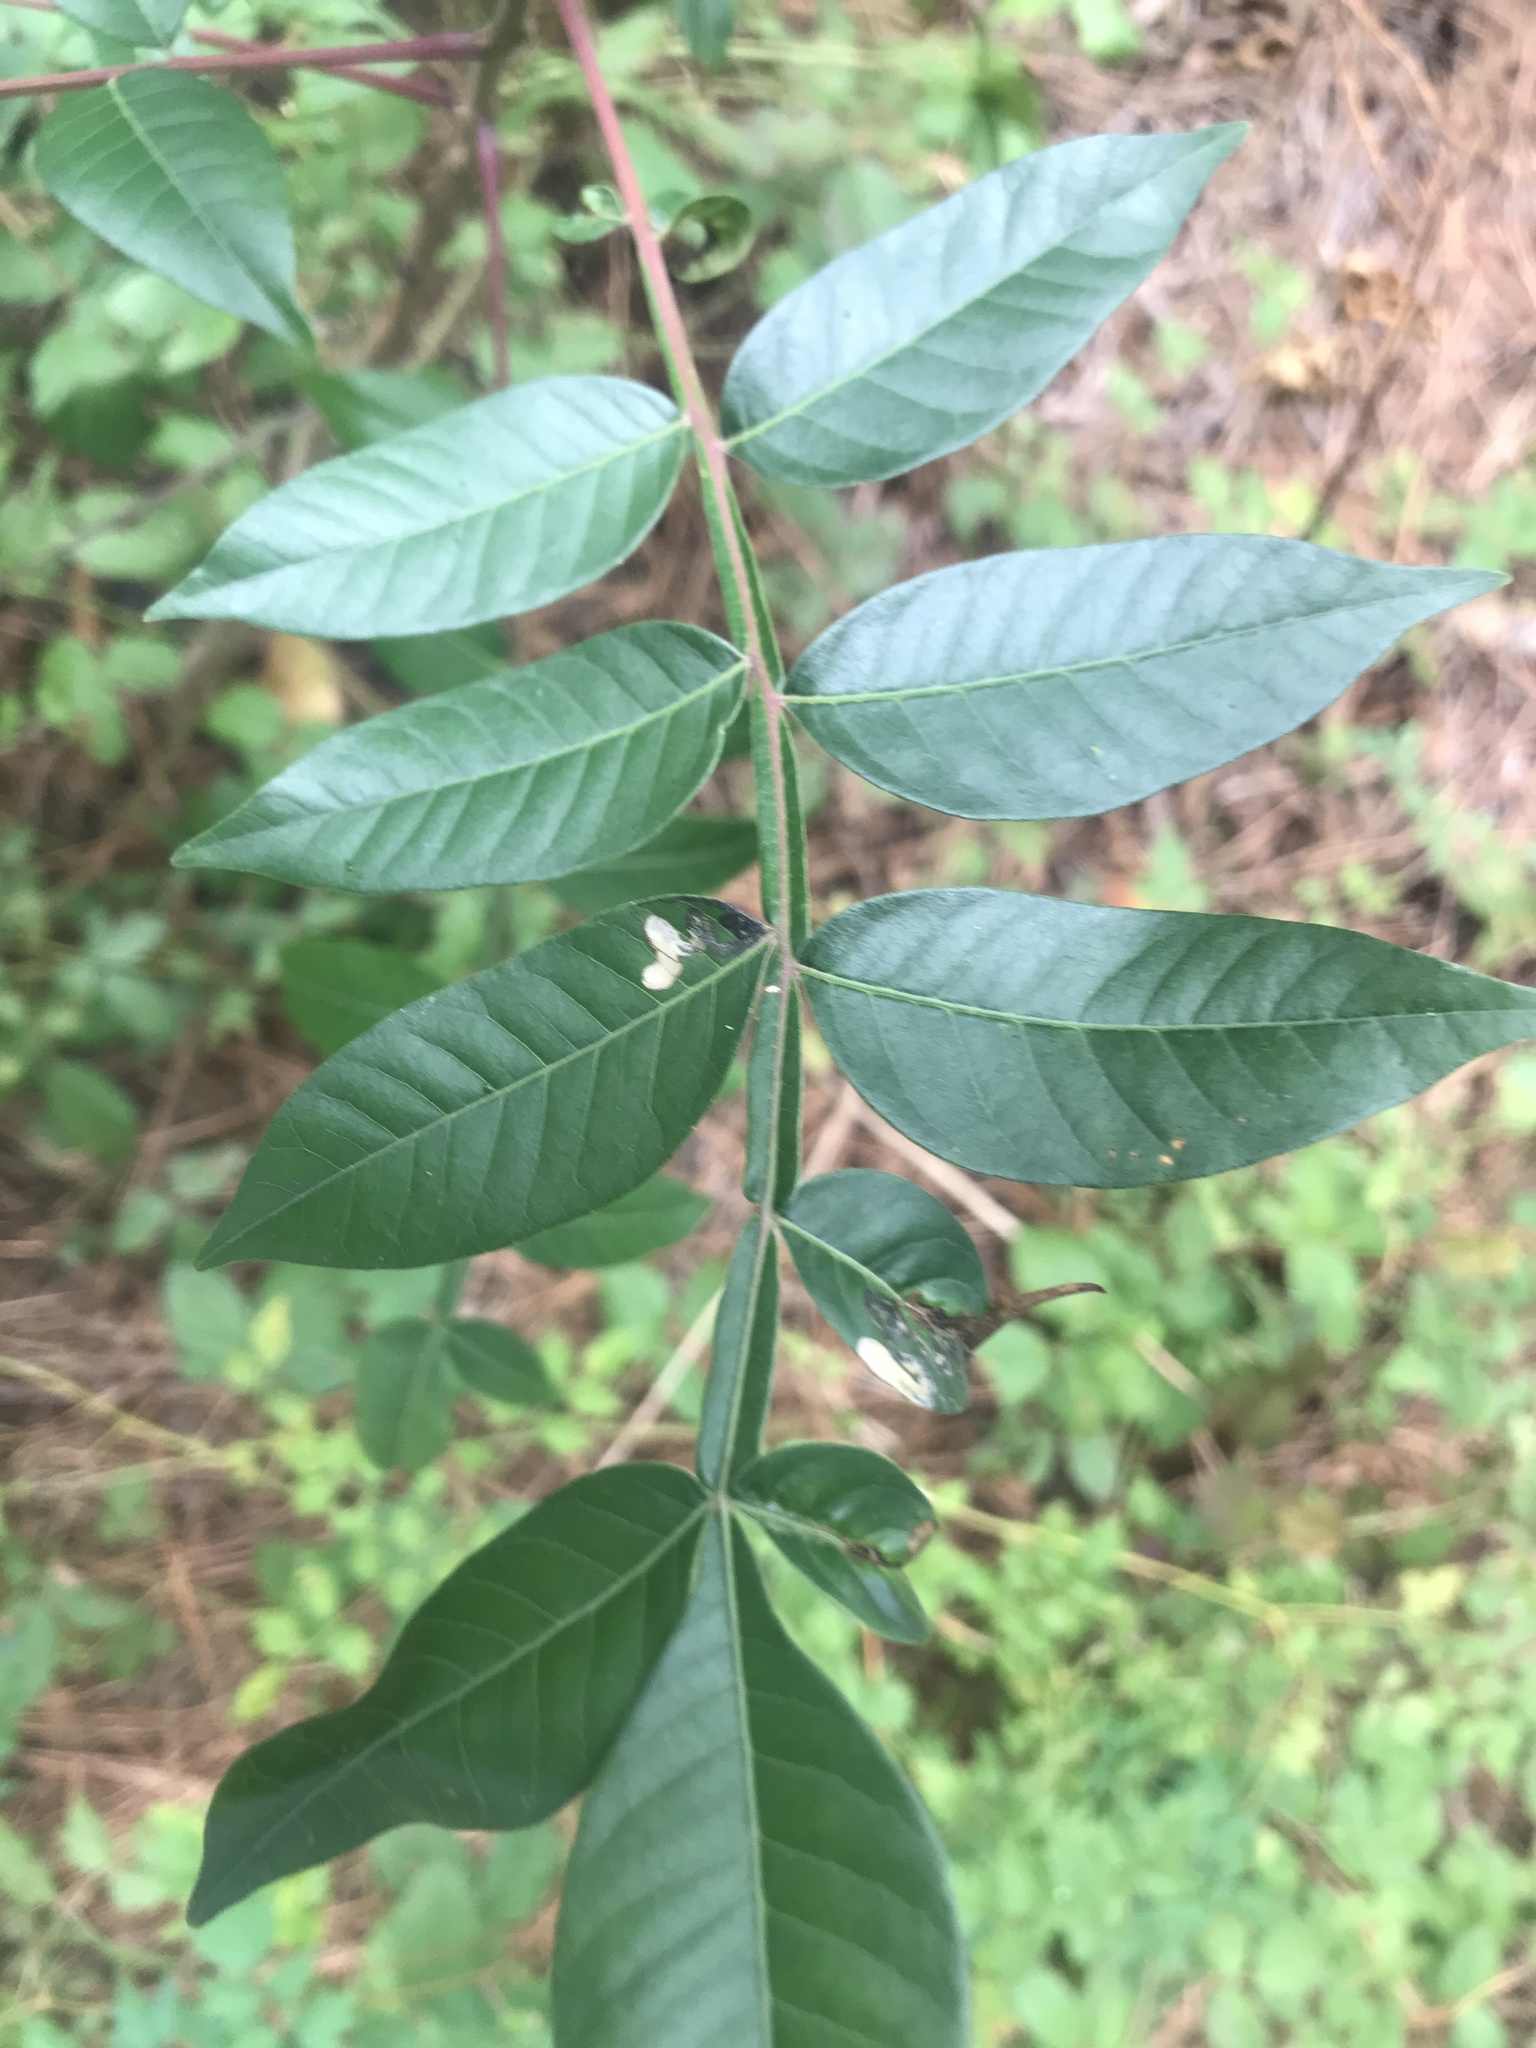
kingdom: Plantae
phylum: Tracheophyta
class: Magnoliopsida
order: Sapindales
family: Anacardiaceae
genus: Rhus
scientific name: Rhus copallina
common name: Shining sumac
